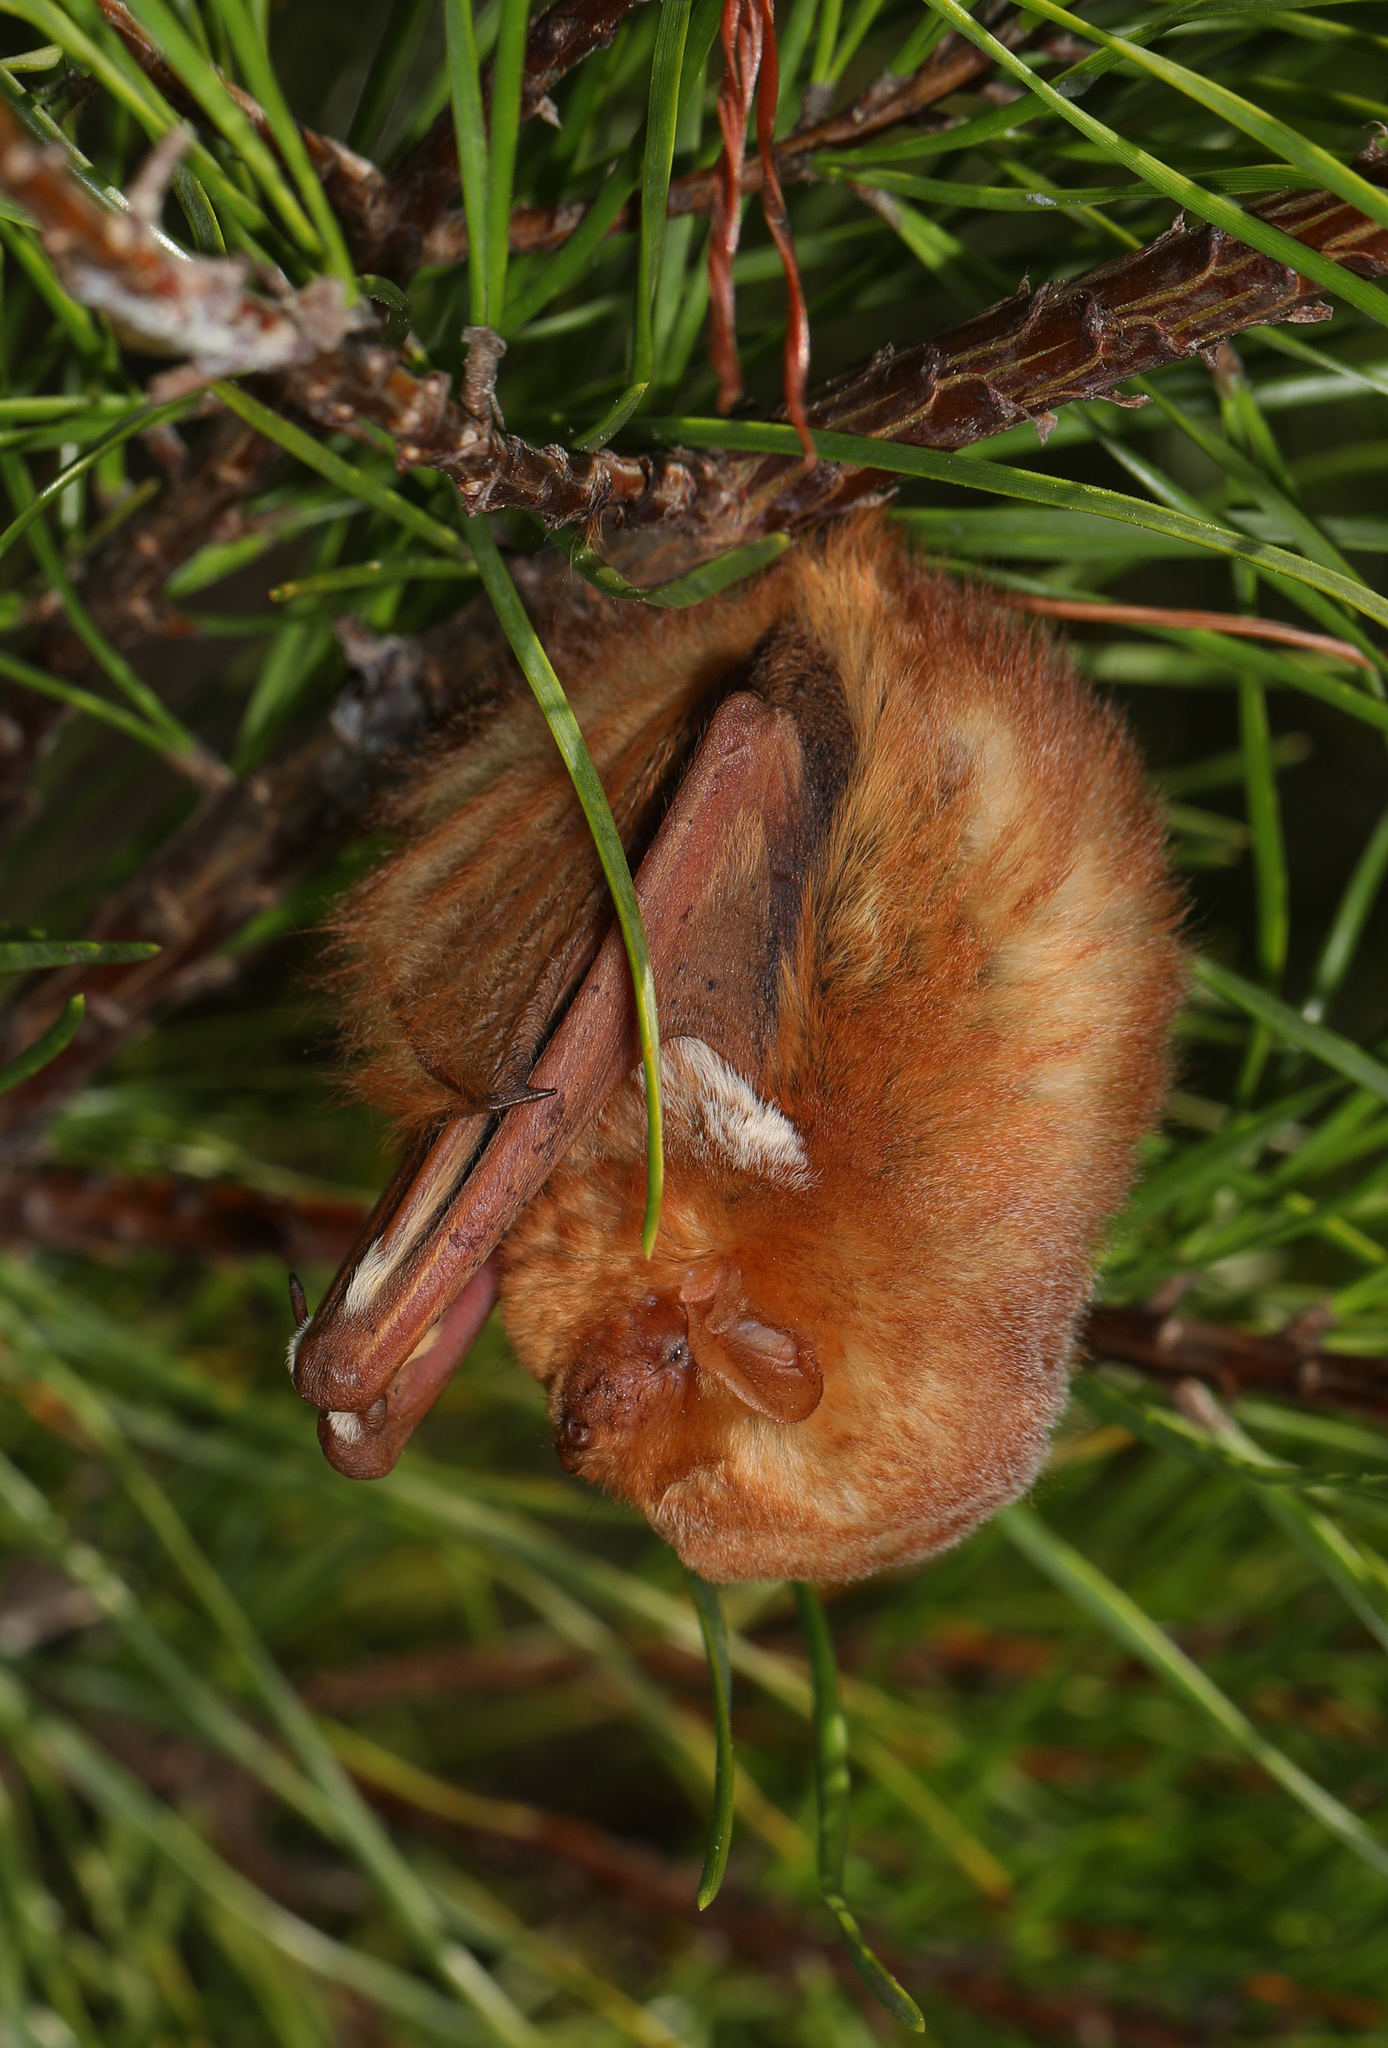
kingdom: Animalia
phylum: Chordata
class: Mammalia
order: Chiroptera
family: Vespertilionidae
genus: Lasiurus
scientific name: Lasiurus borealis
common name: Eastern red bat
